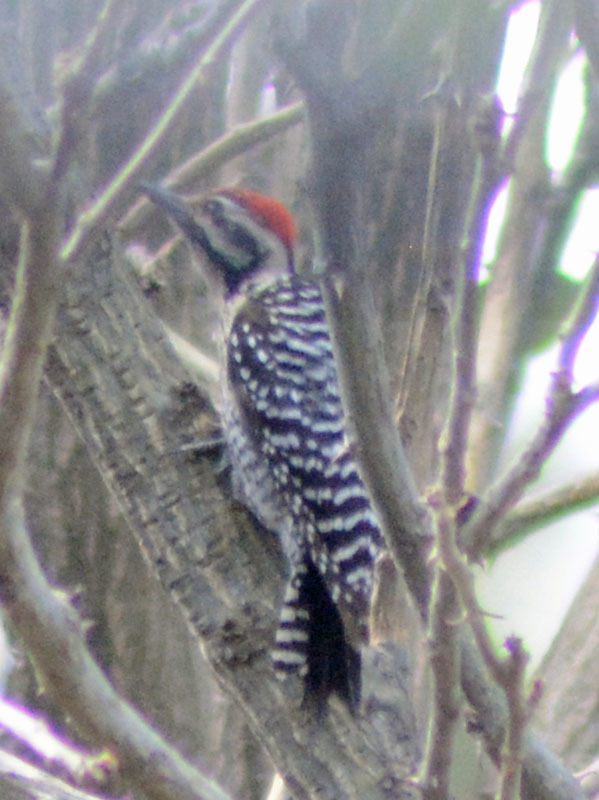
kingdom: Animalia
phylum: Chordata
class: Aves
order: Piciformes
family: Picidae
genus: Dryobates
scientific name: Dryobates scalaris
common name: Ladder-backed woodpecker
